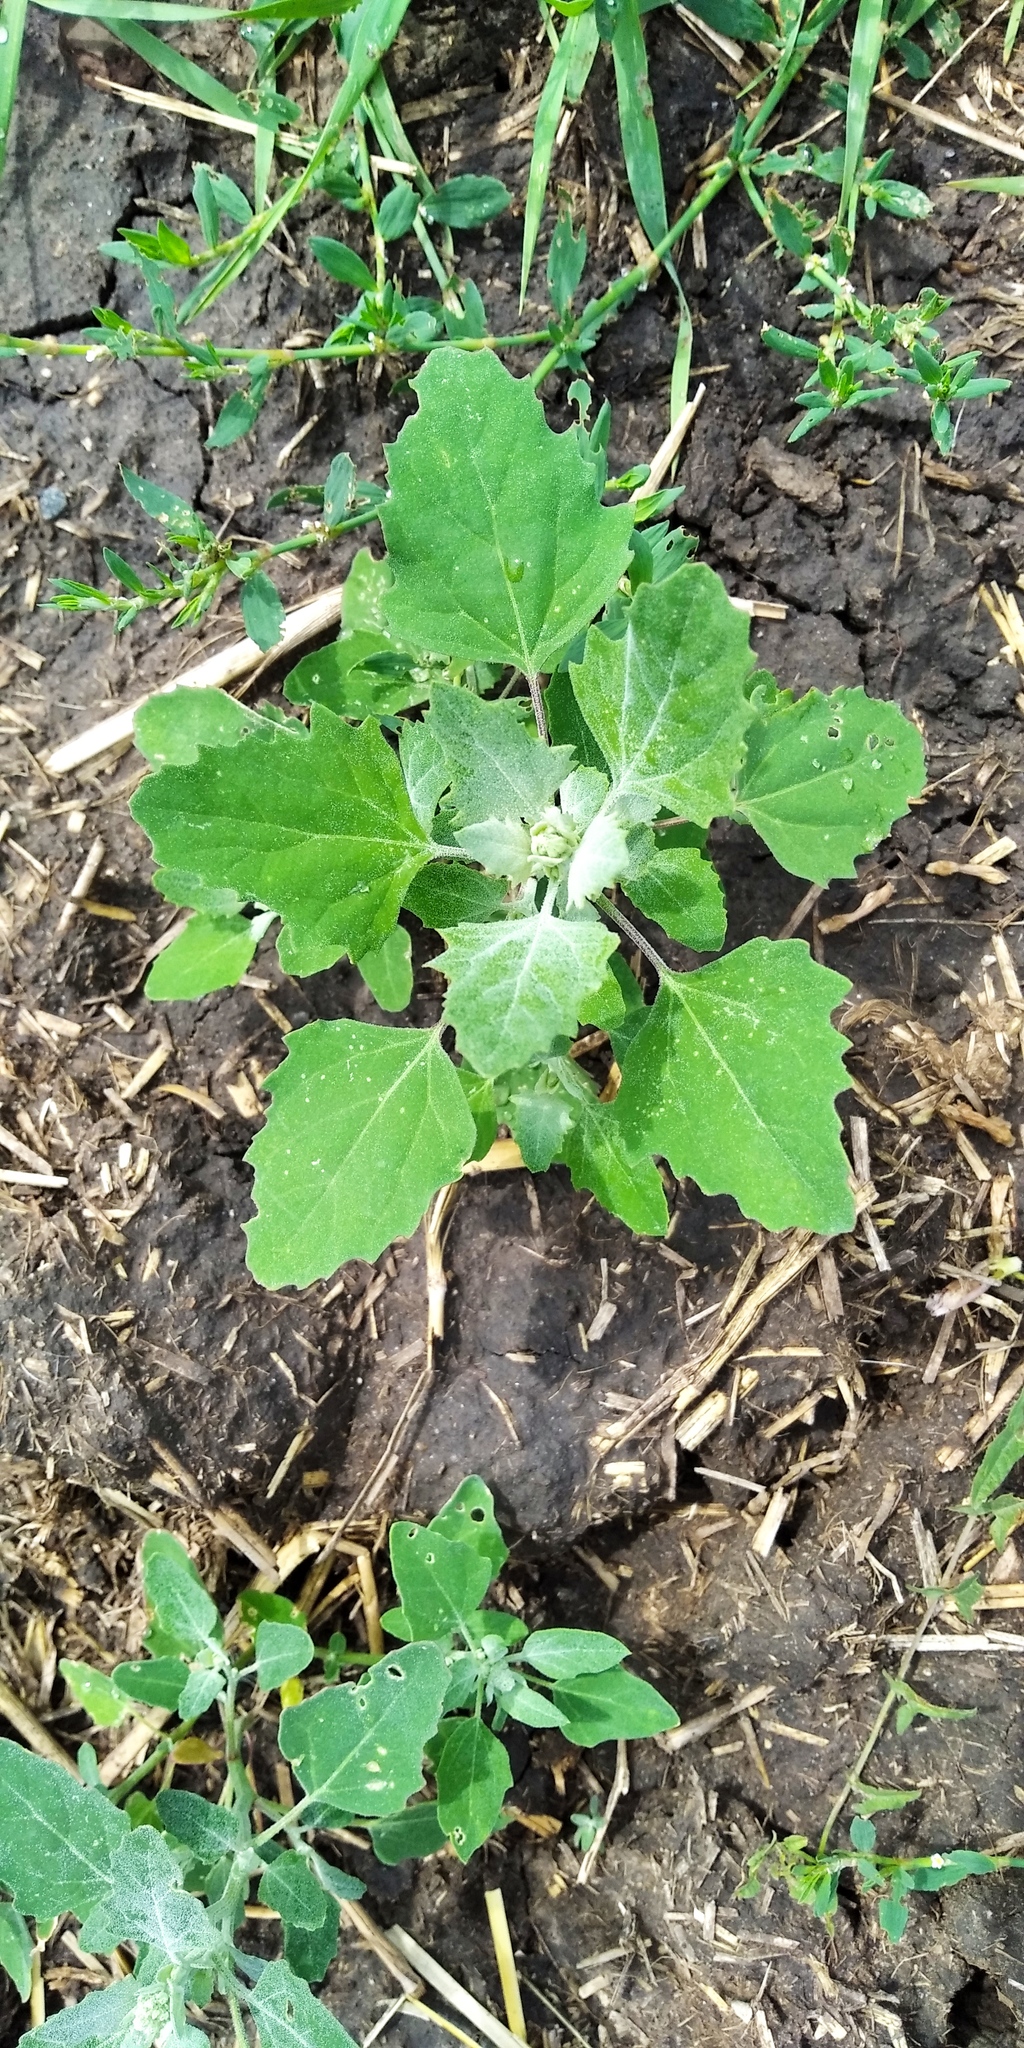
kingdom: Plantae
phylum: Tracheophyta
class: Magnoliopsida
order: Caryophyllales
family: Amaranthaceae
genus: Chenopodium
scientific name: Chenopodium album
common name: Fat-hen
